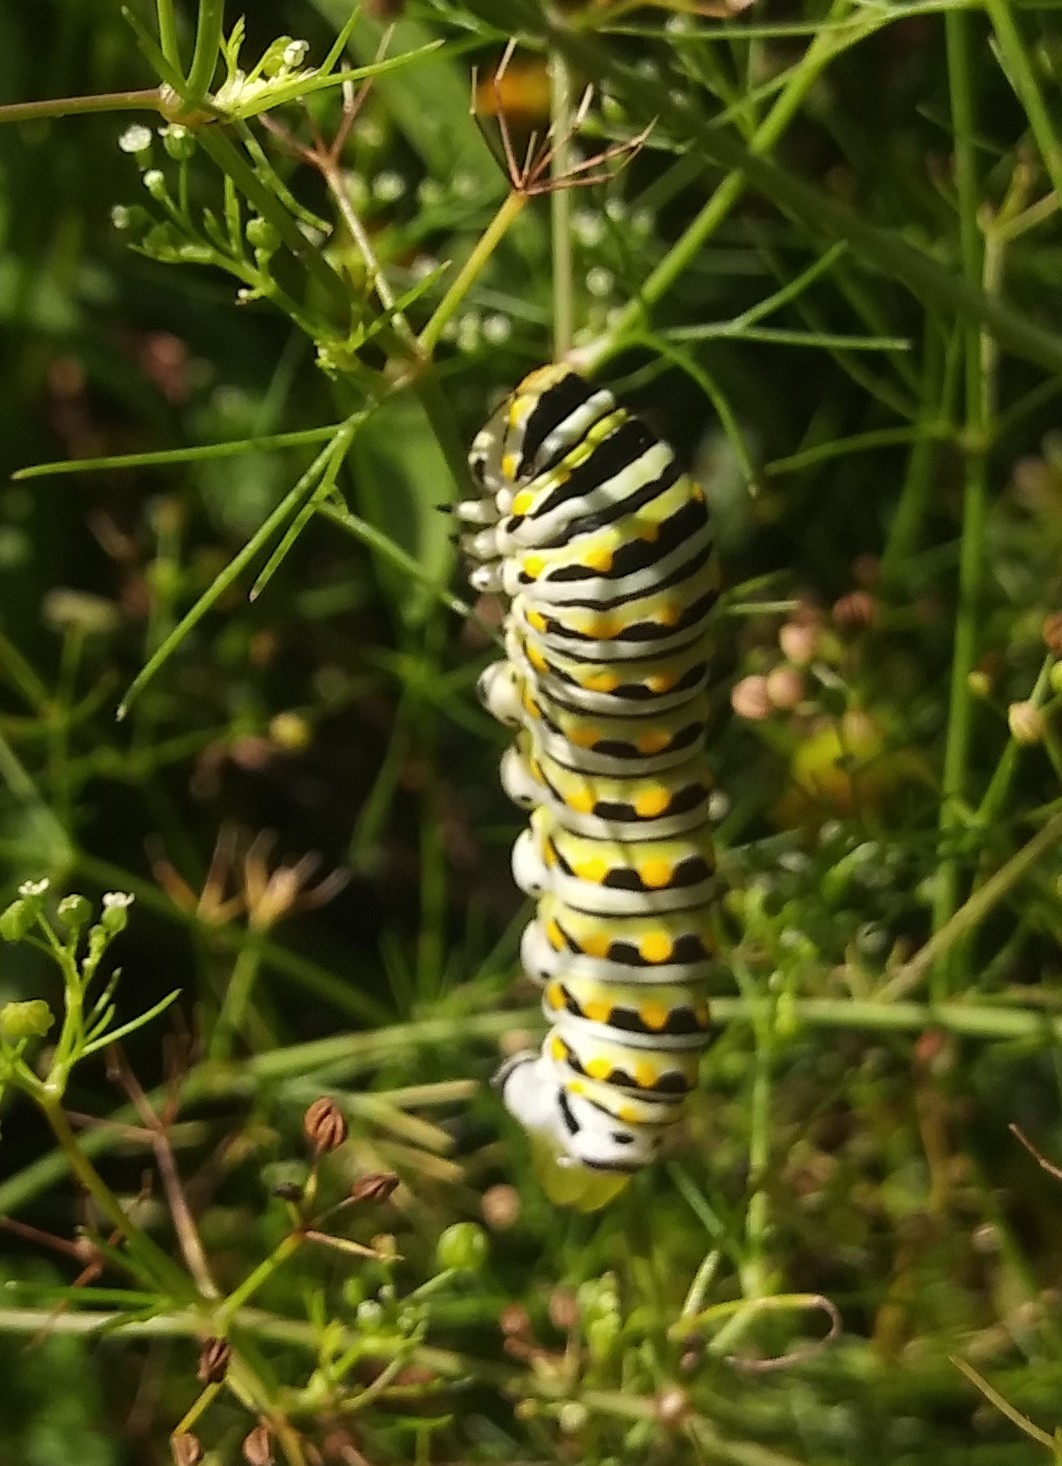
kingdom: Animalia
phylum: Arthropoda
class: Insecta
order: Lepidoptera
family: Papilionidae
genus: Papilio
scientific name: Papilio polyxenes
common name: Black swallowtail
